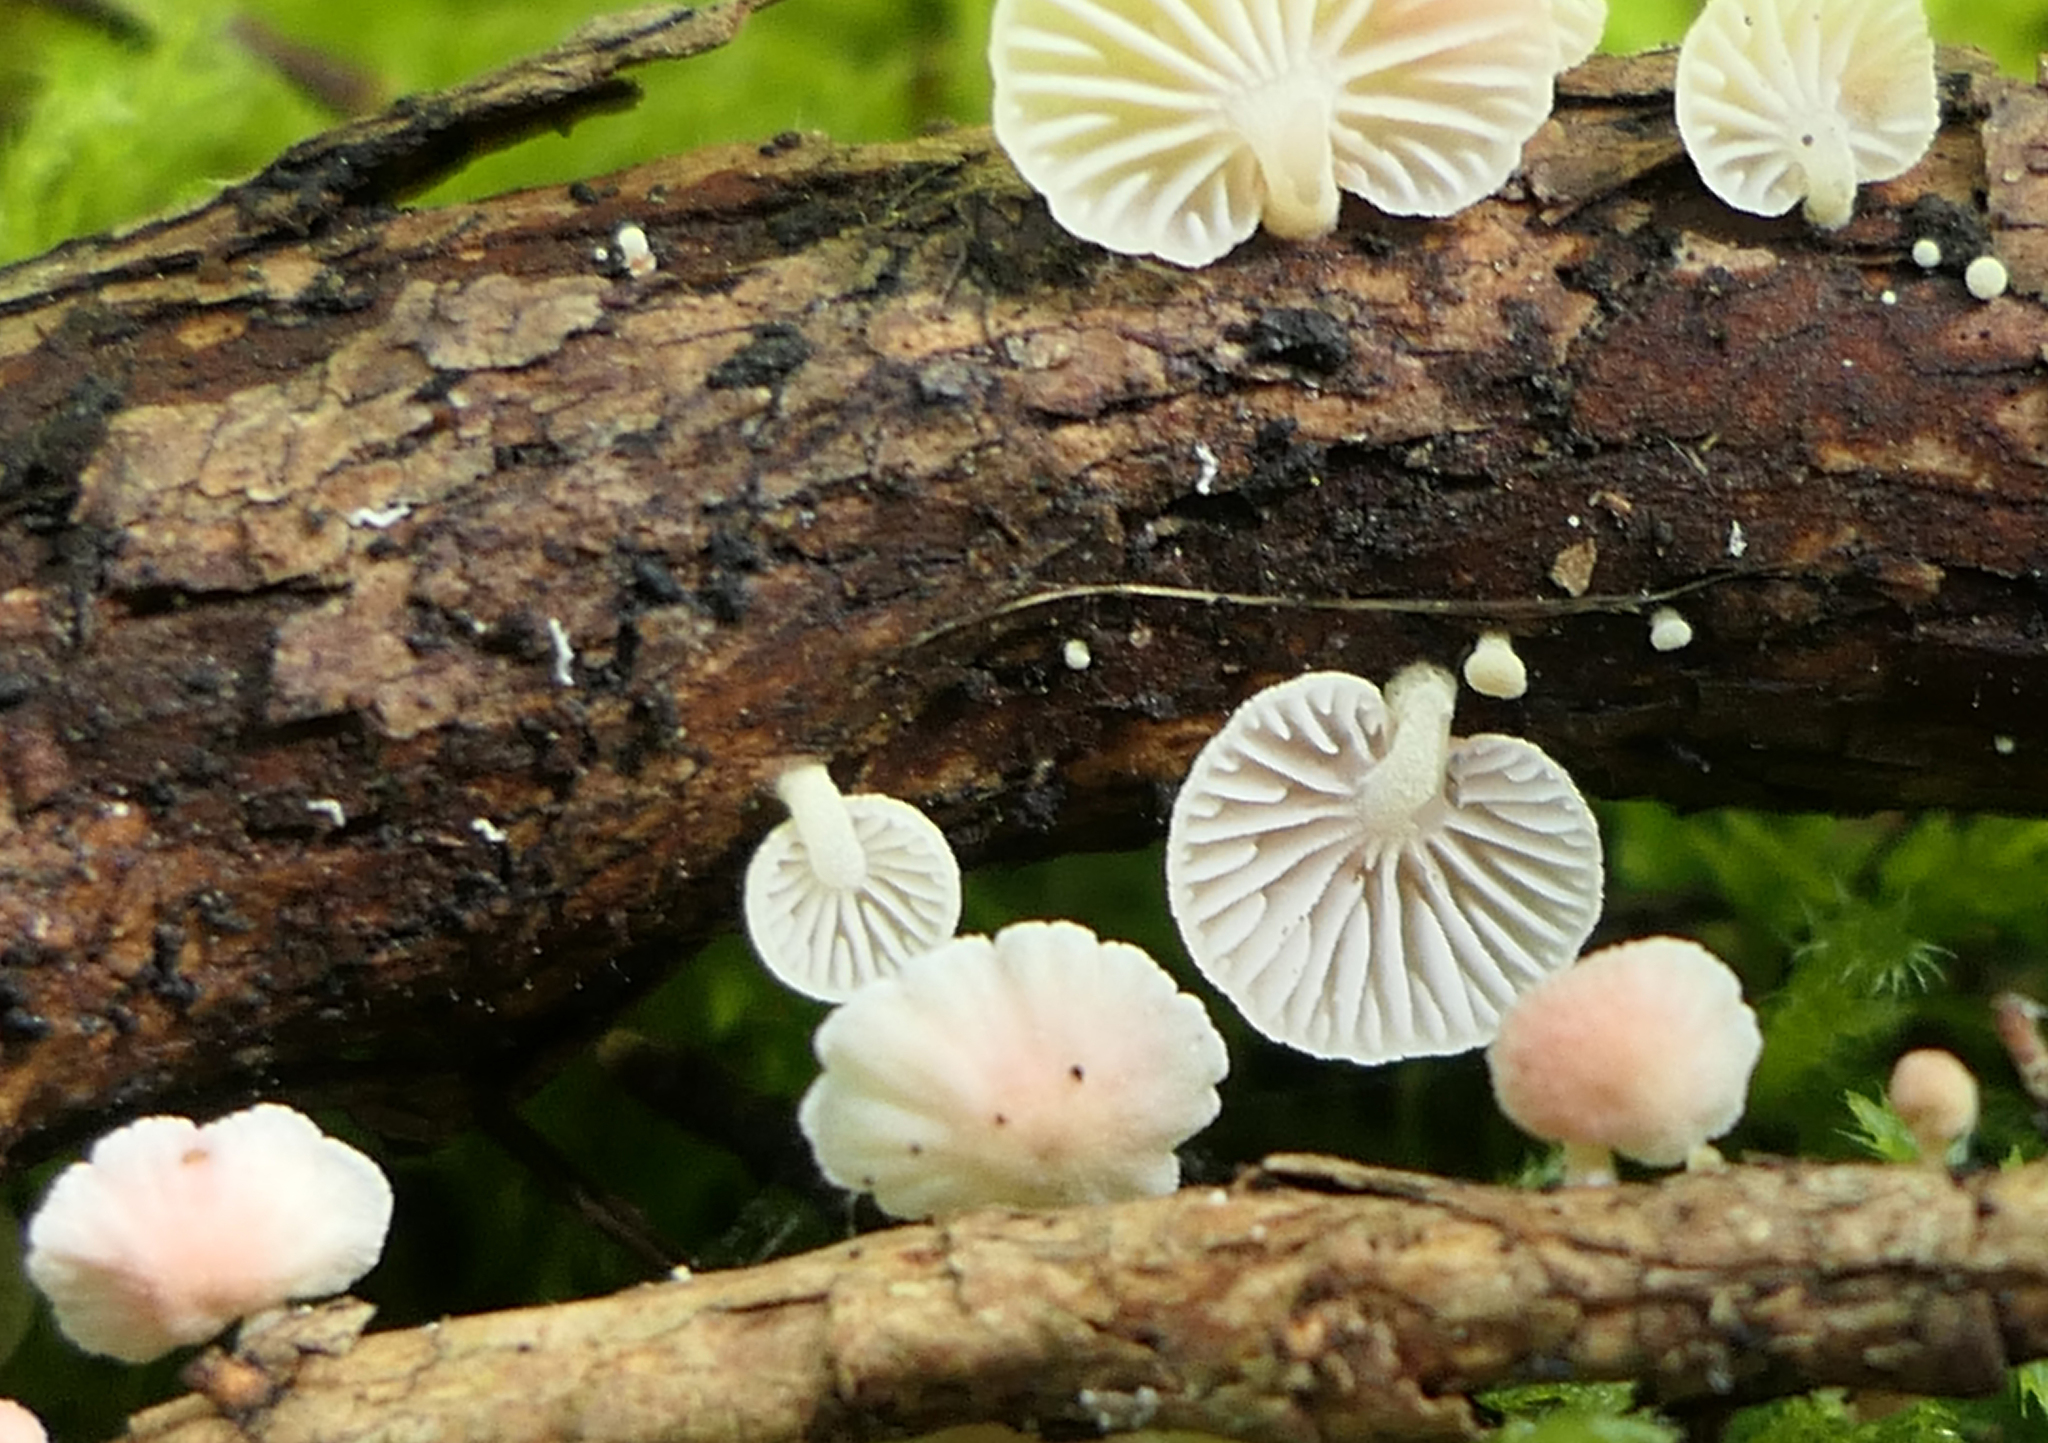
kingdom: Fungi
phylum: Basidiomycota
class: Agaricomycetes
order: Agaricales
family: Mycenaceae
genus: Mycena
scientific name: Mycena roseoflava
